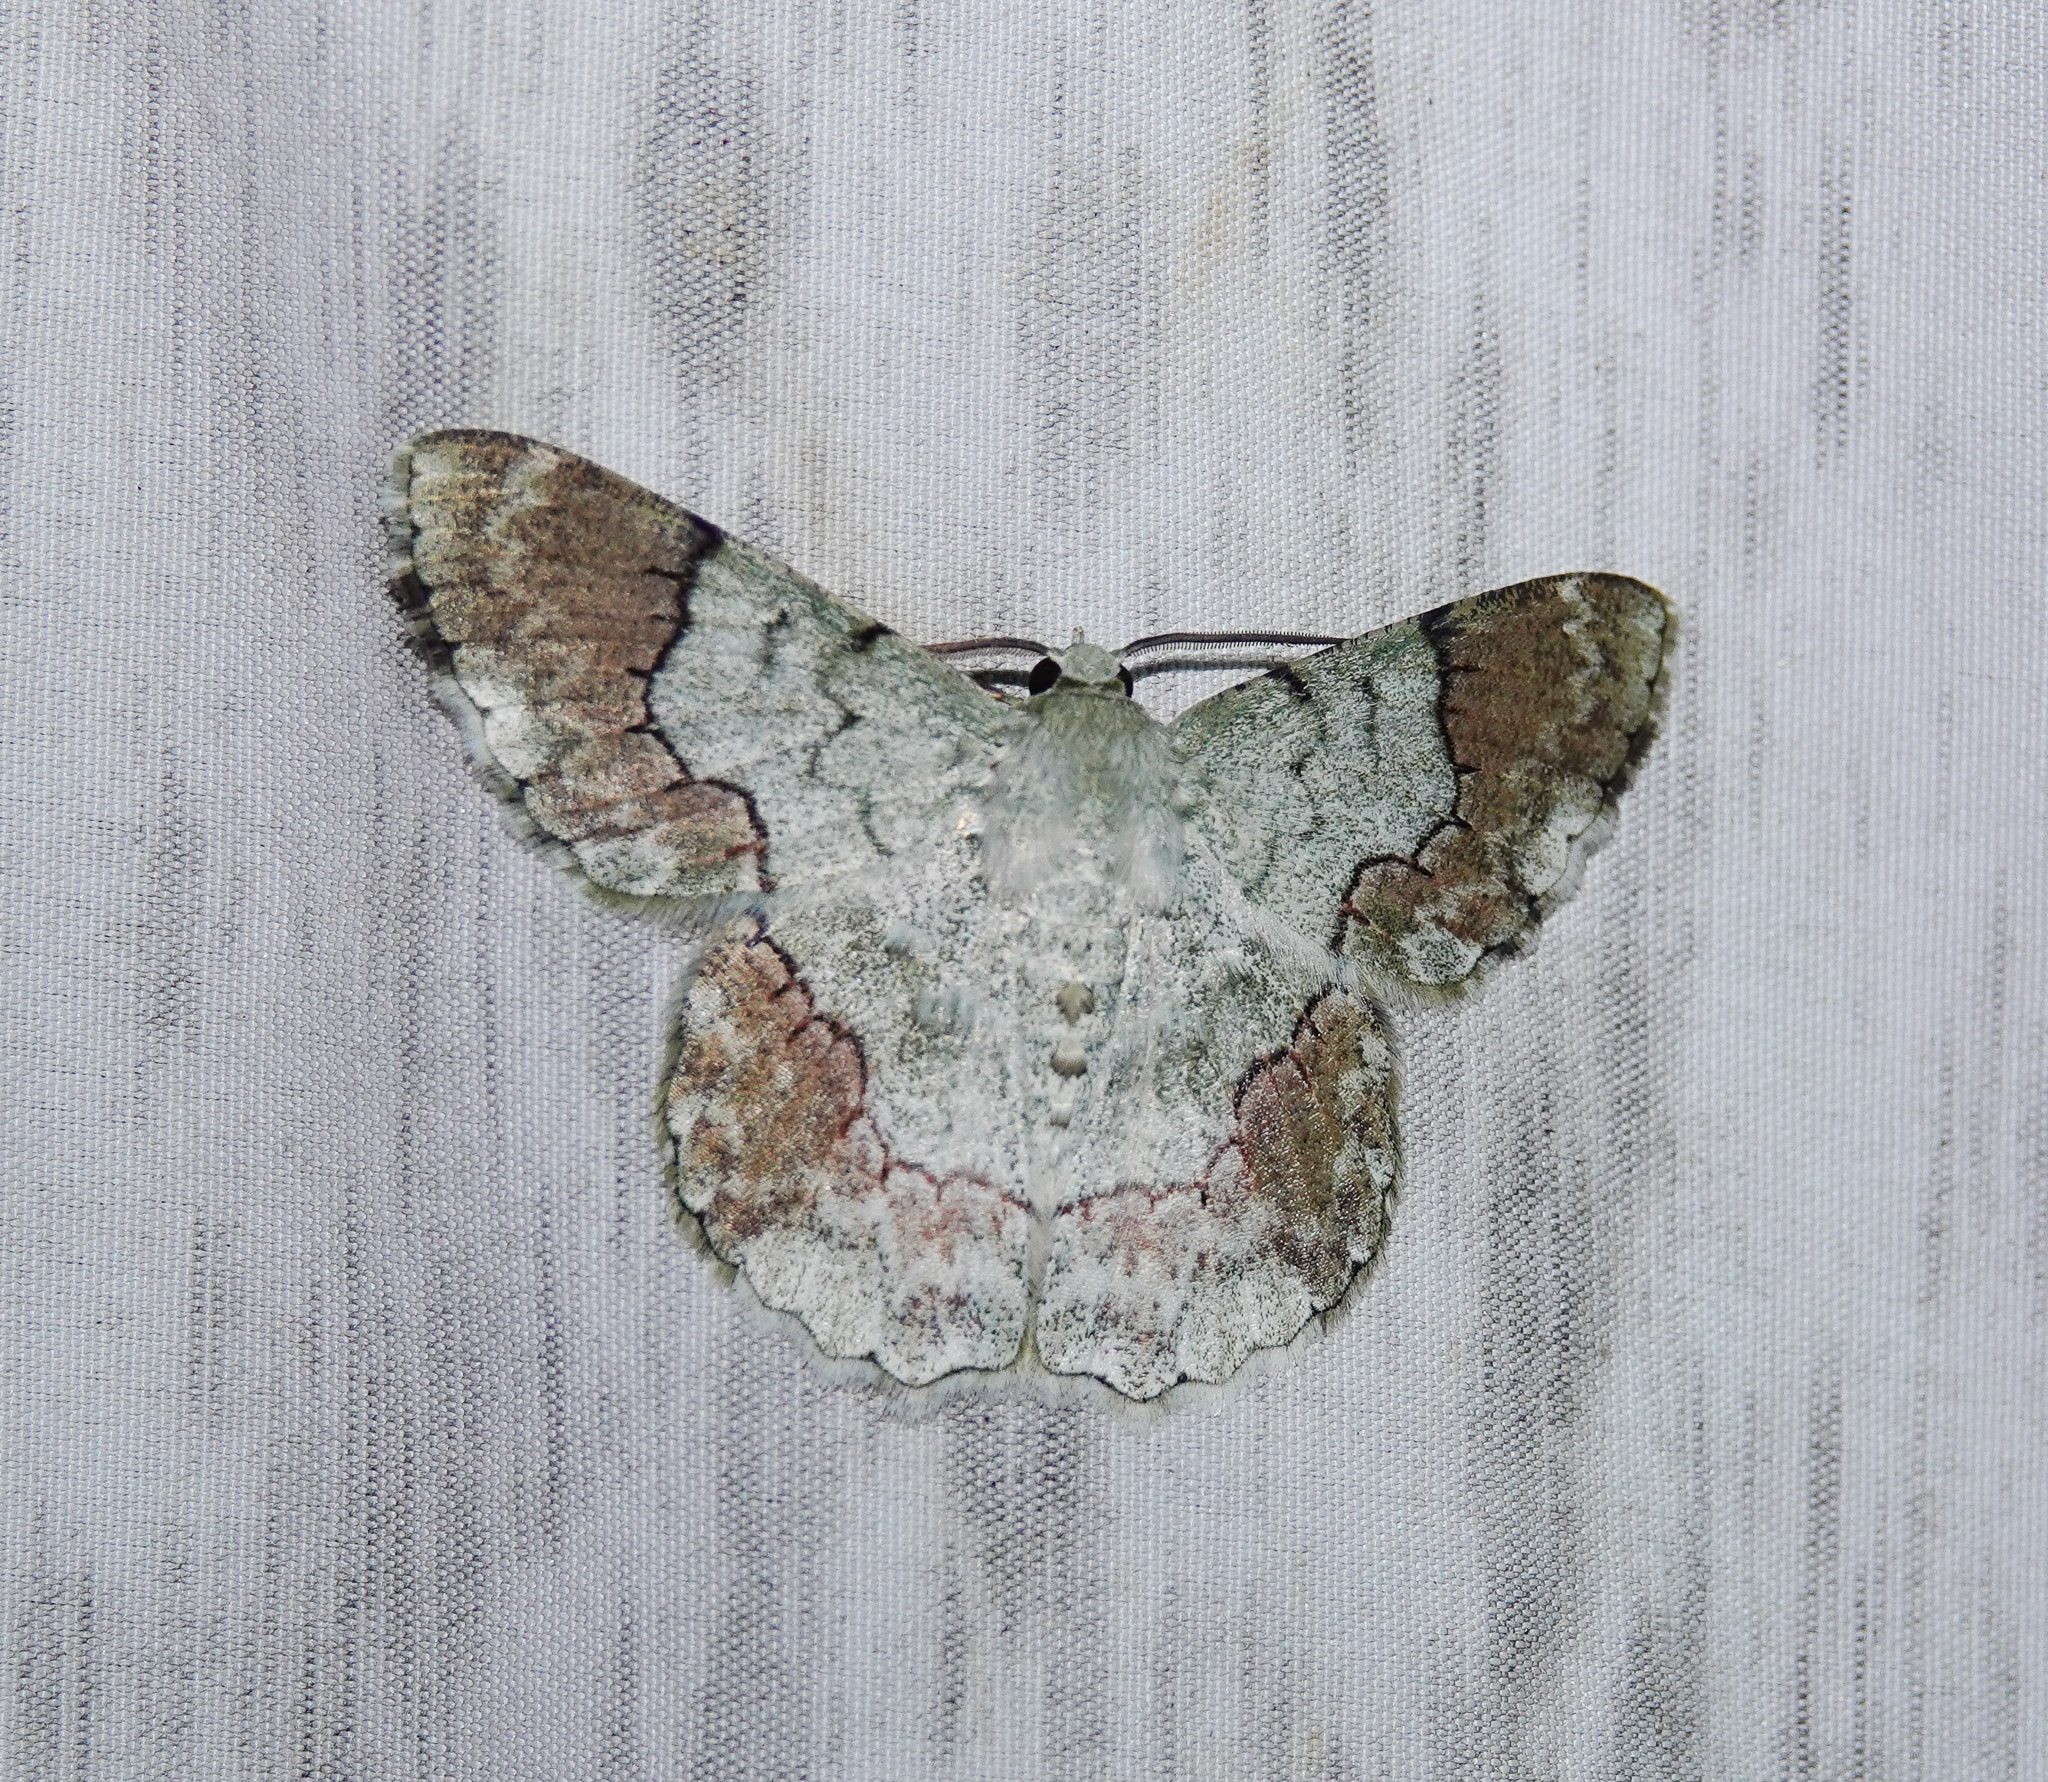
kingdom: Animalia
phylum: Arthropoda
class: Insecta
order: Lepidoptera
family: Geometridae
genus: Pingasa
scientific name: Pingasa rubicunda
